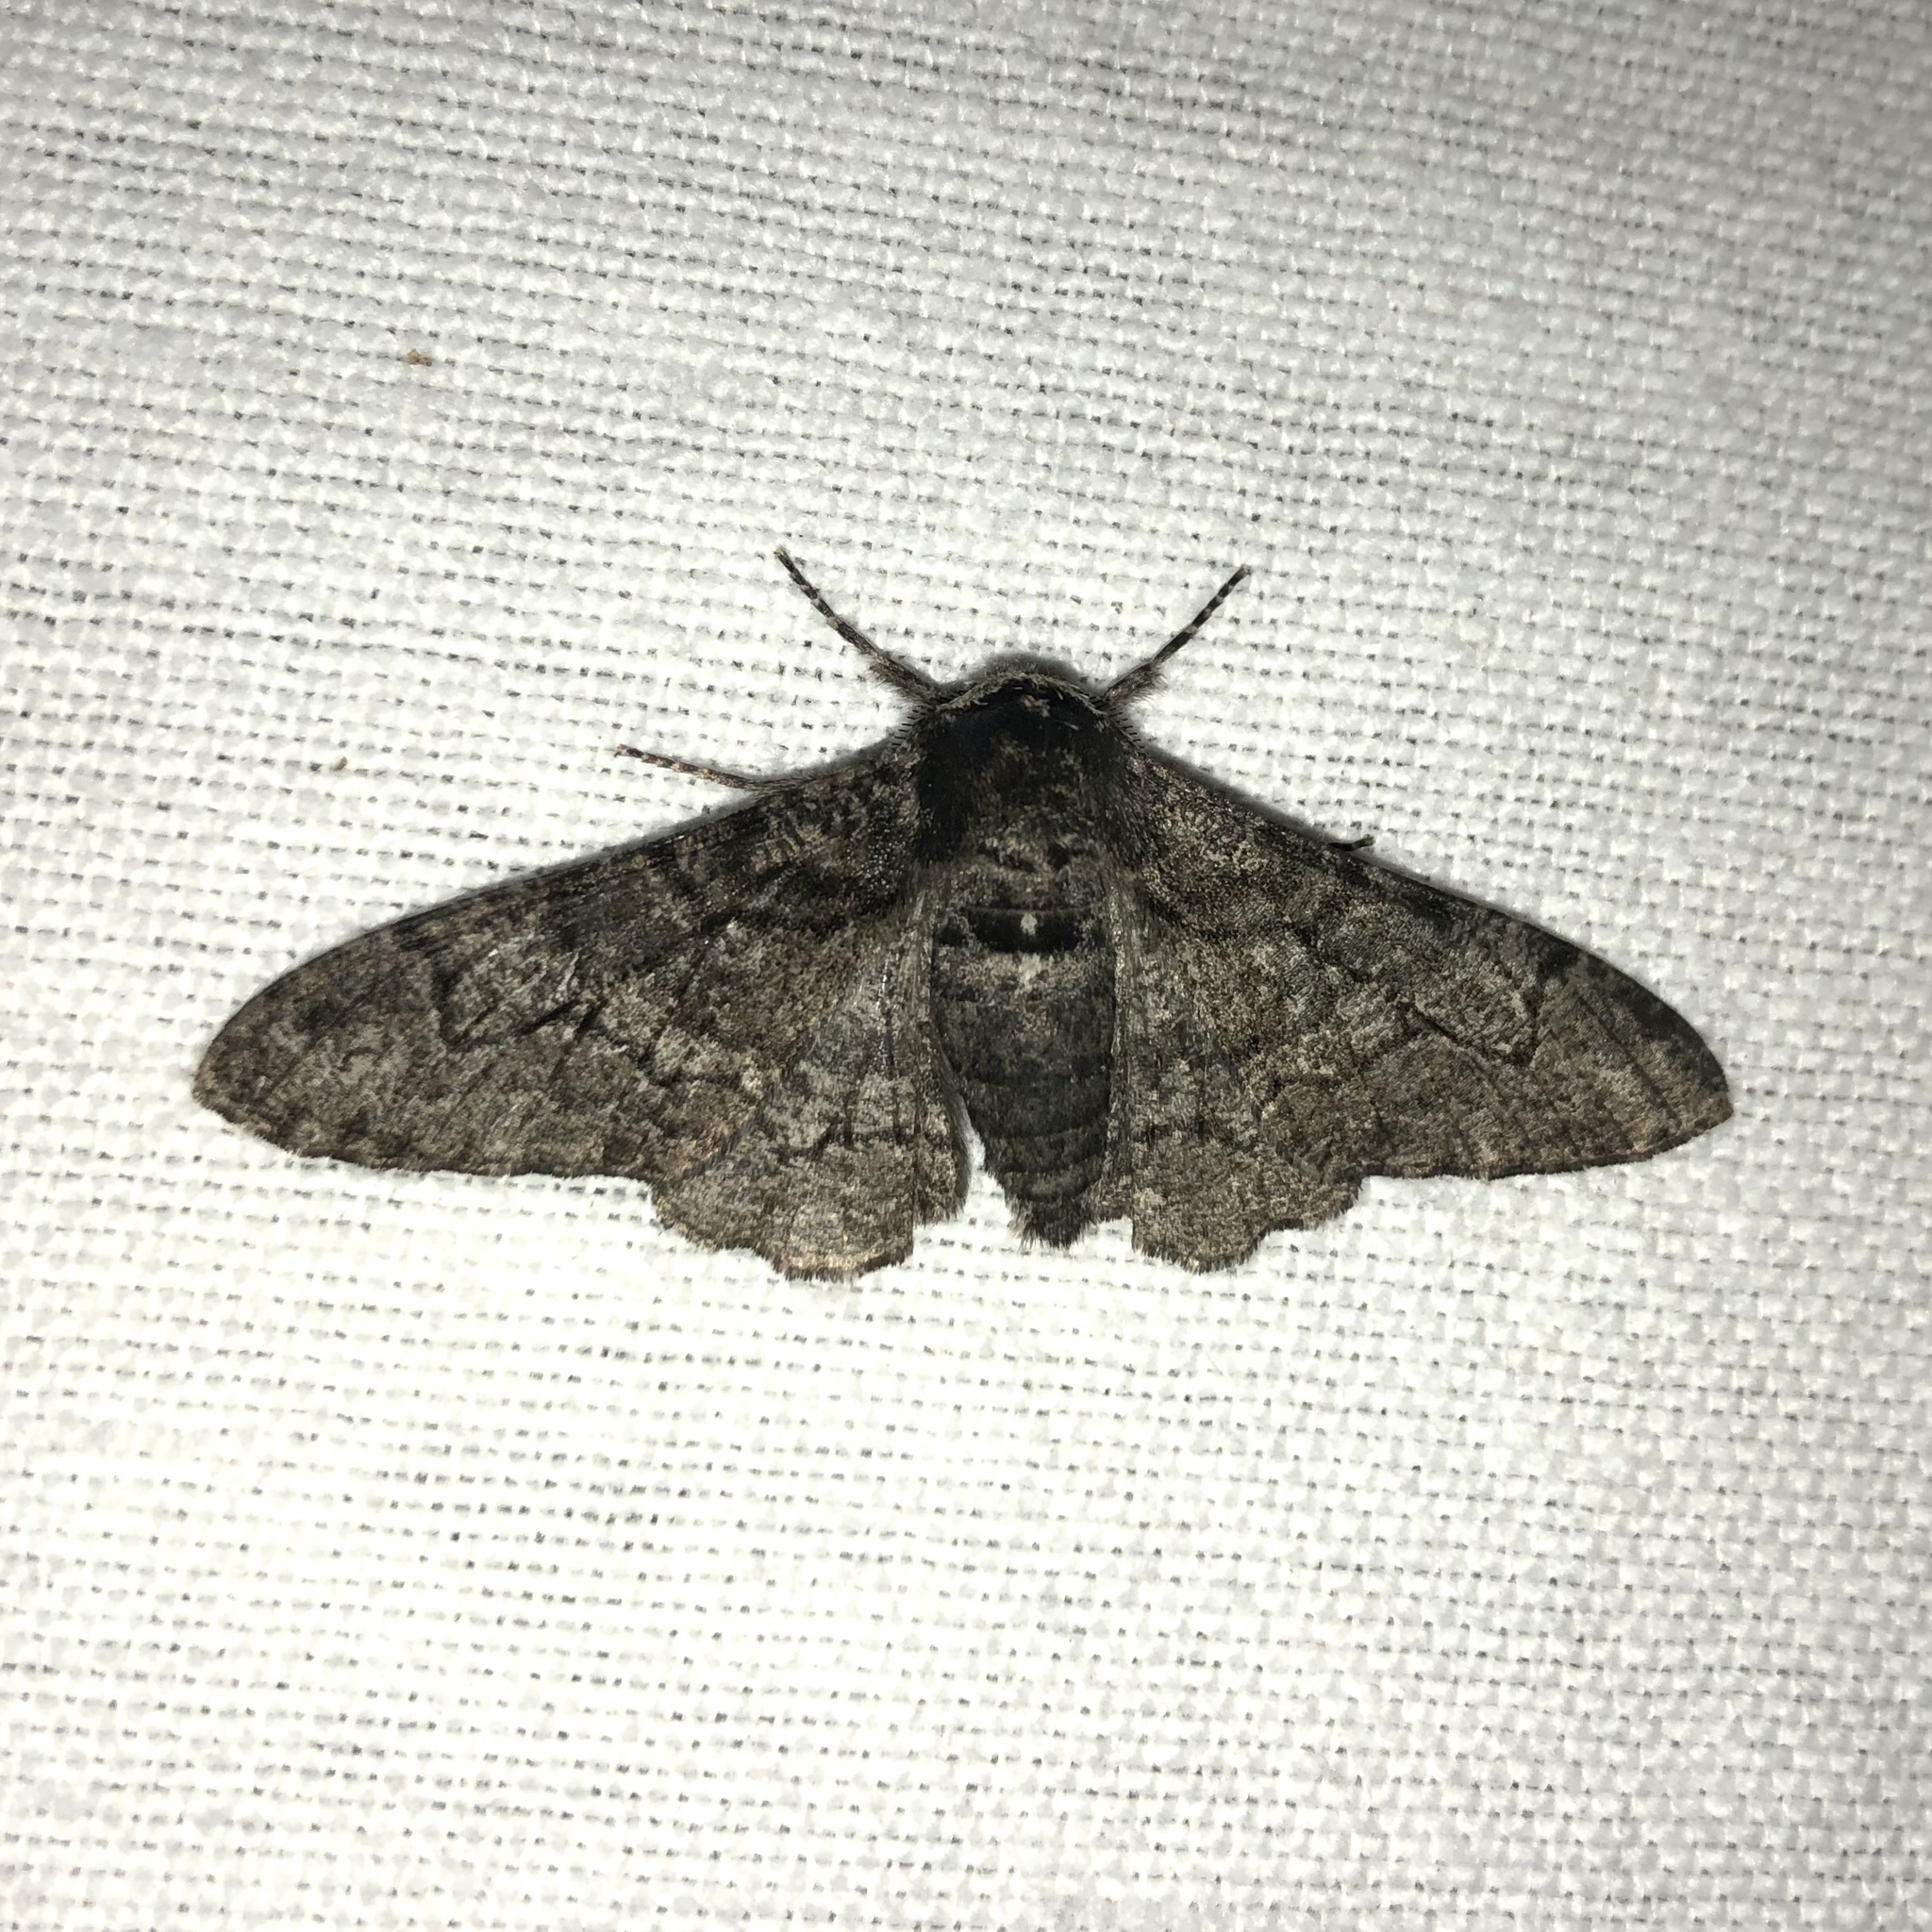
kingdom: Animalia
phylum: Arthropoda
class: Insecta
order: Lepidoptera
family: Geometridae
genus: Biston
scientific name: Biston betularia
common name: Peppered moth
